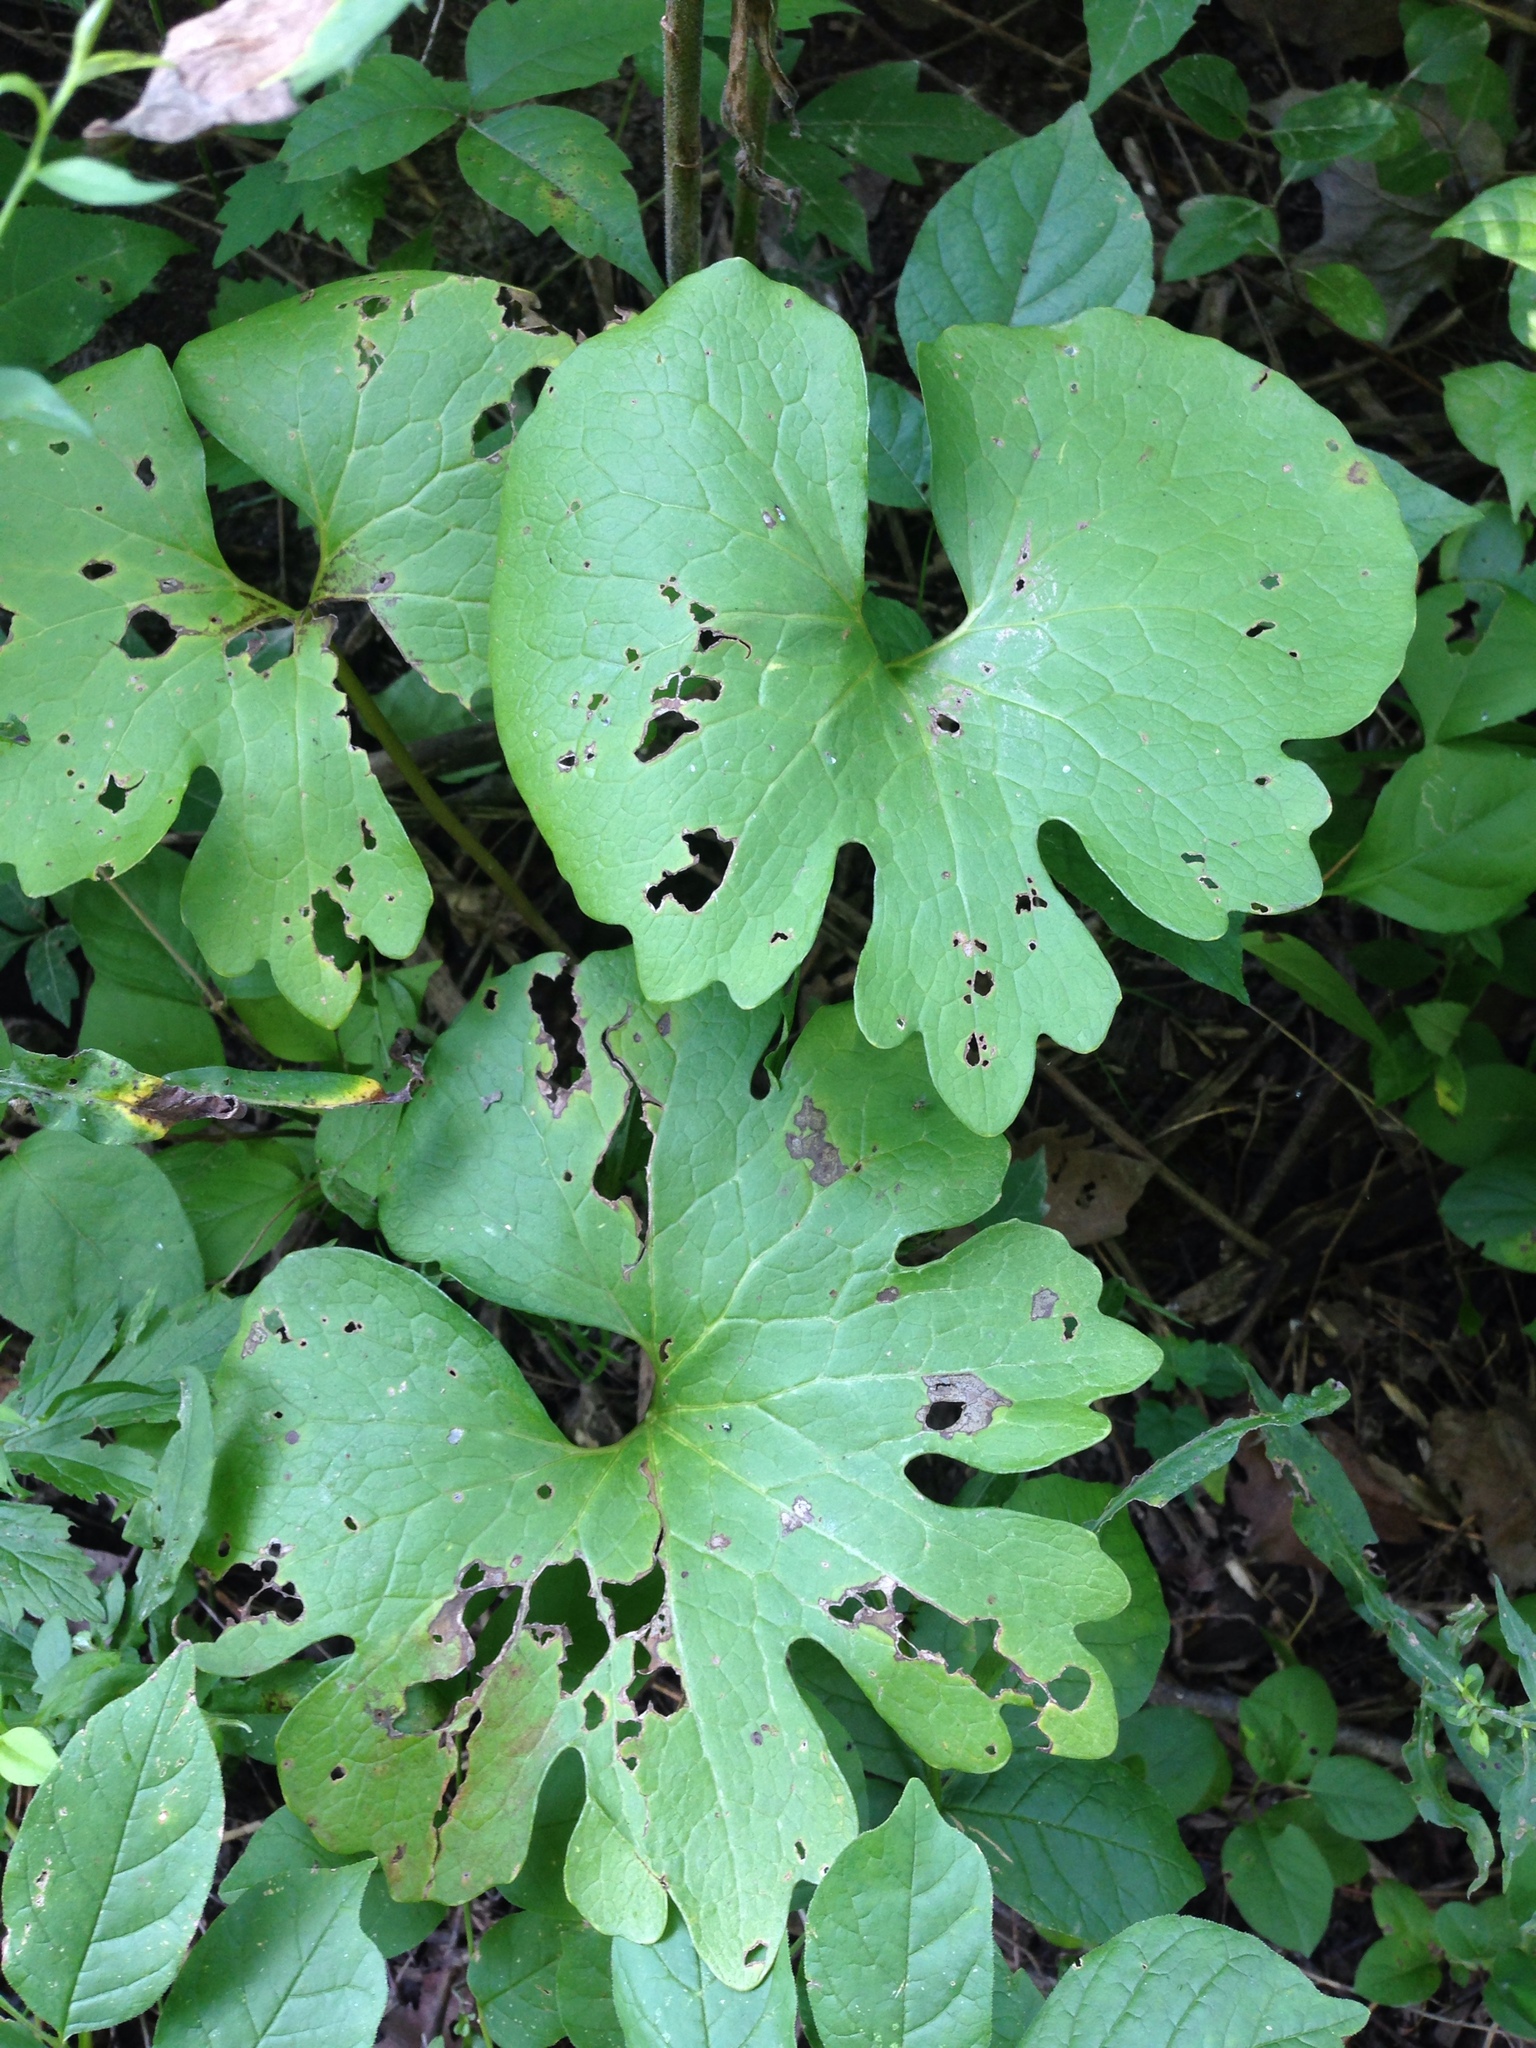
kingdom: Plantae
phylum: Tracheophyta
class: Magnoliopsida
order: Ranunculales
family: Papaveraceae
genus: Sanguinaria
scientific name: Sanguinaria canadensis
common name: Bloodroot
